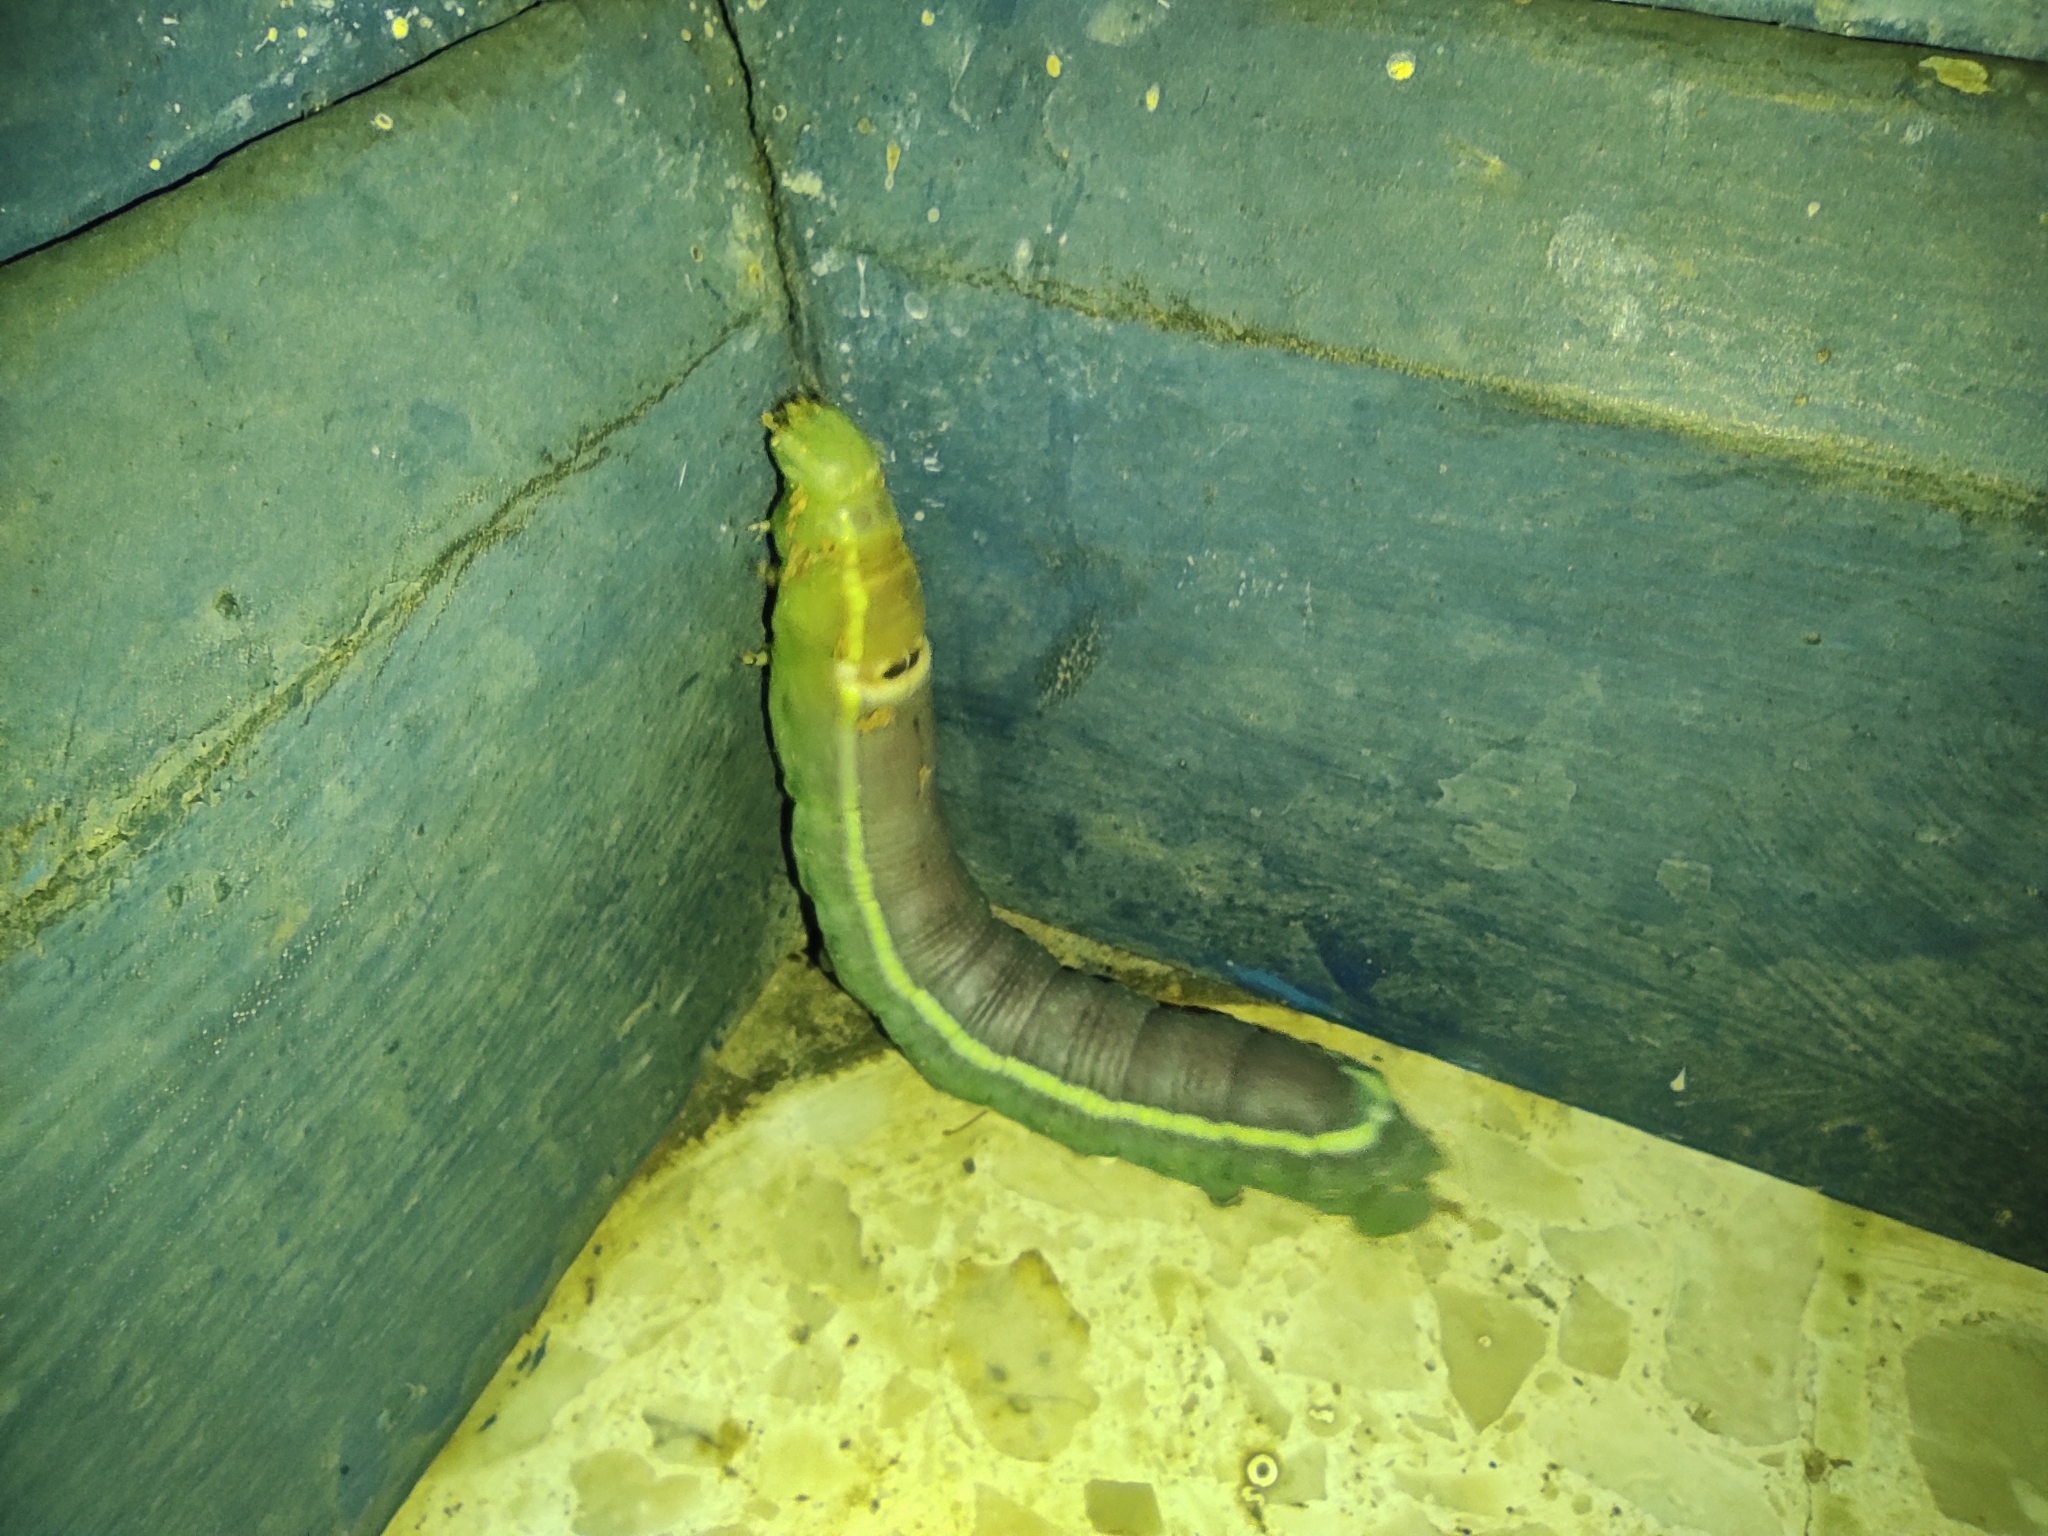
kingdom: Animalia
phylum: Arthropoda
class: Insecta
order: Lepidoptera
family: Sphingidae
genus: Erinnyis
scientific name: Erinnyis ello
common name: Ello sphinx
